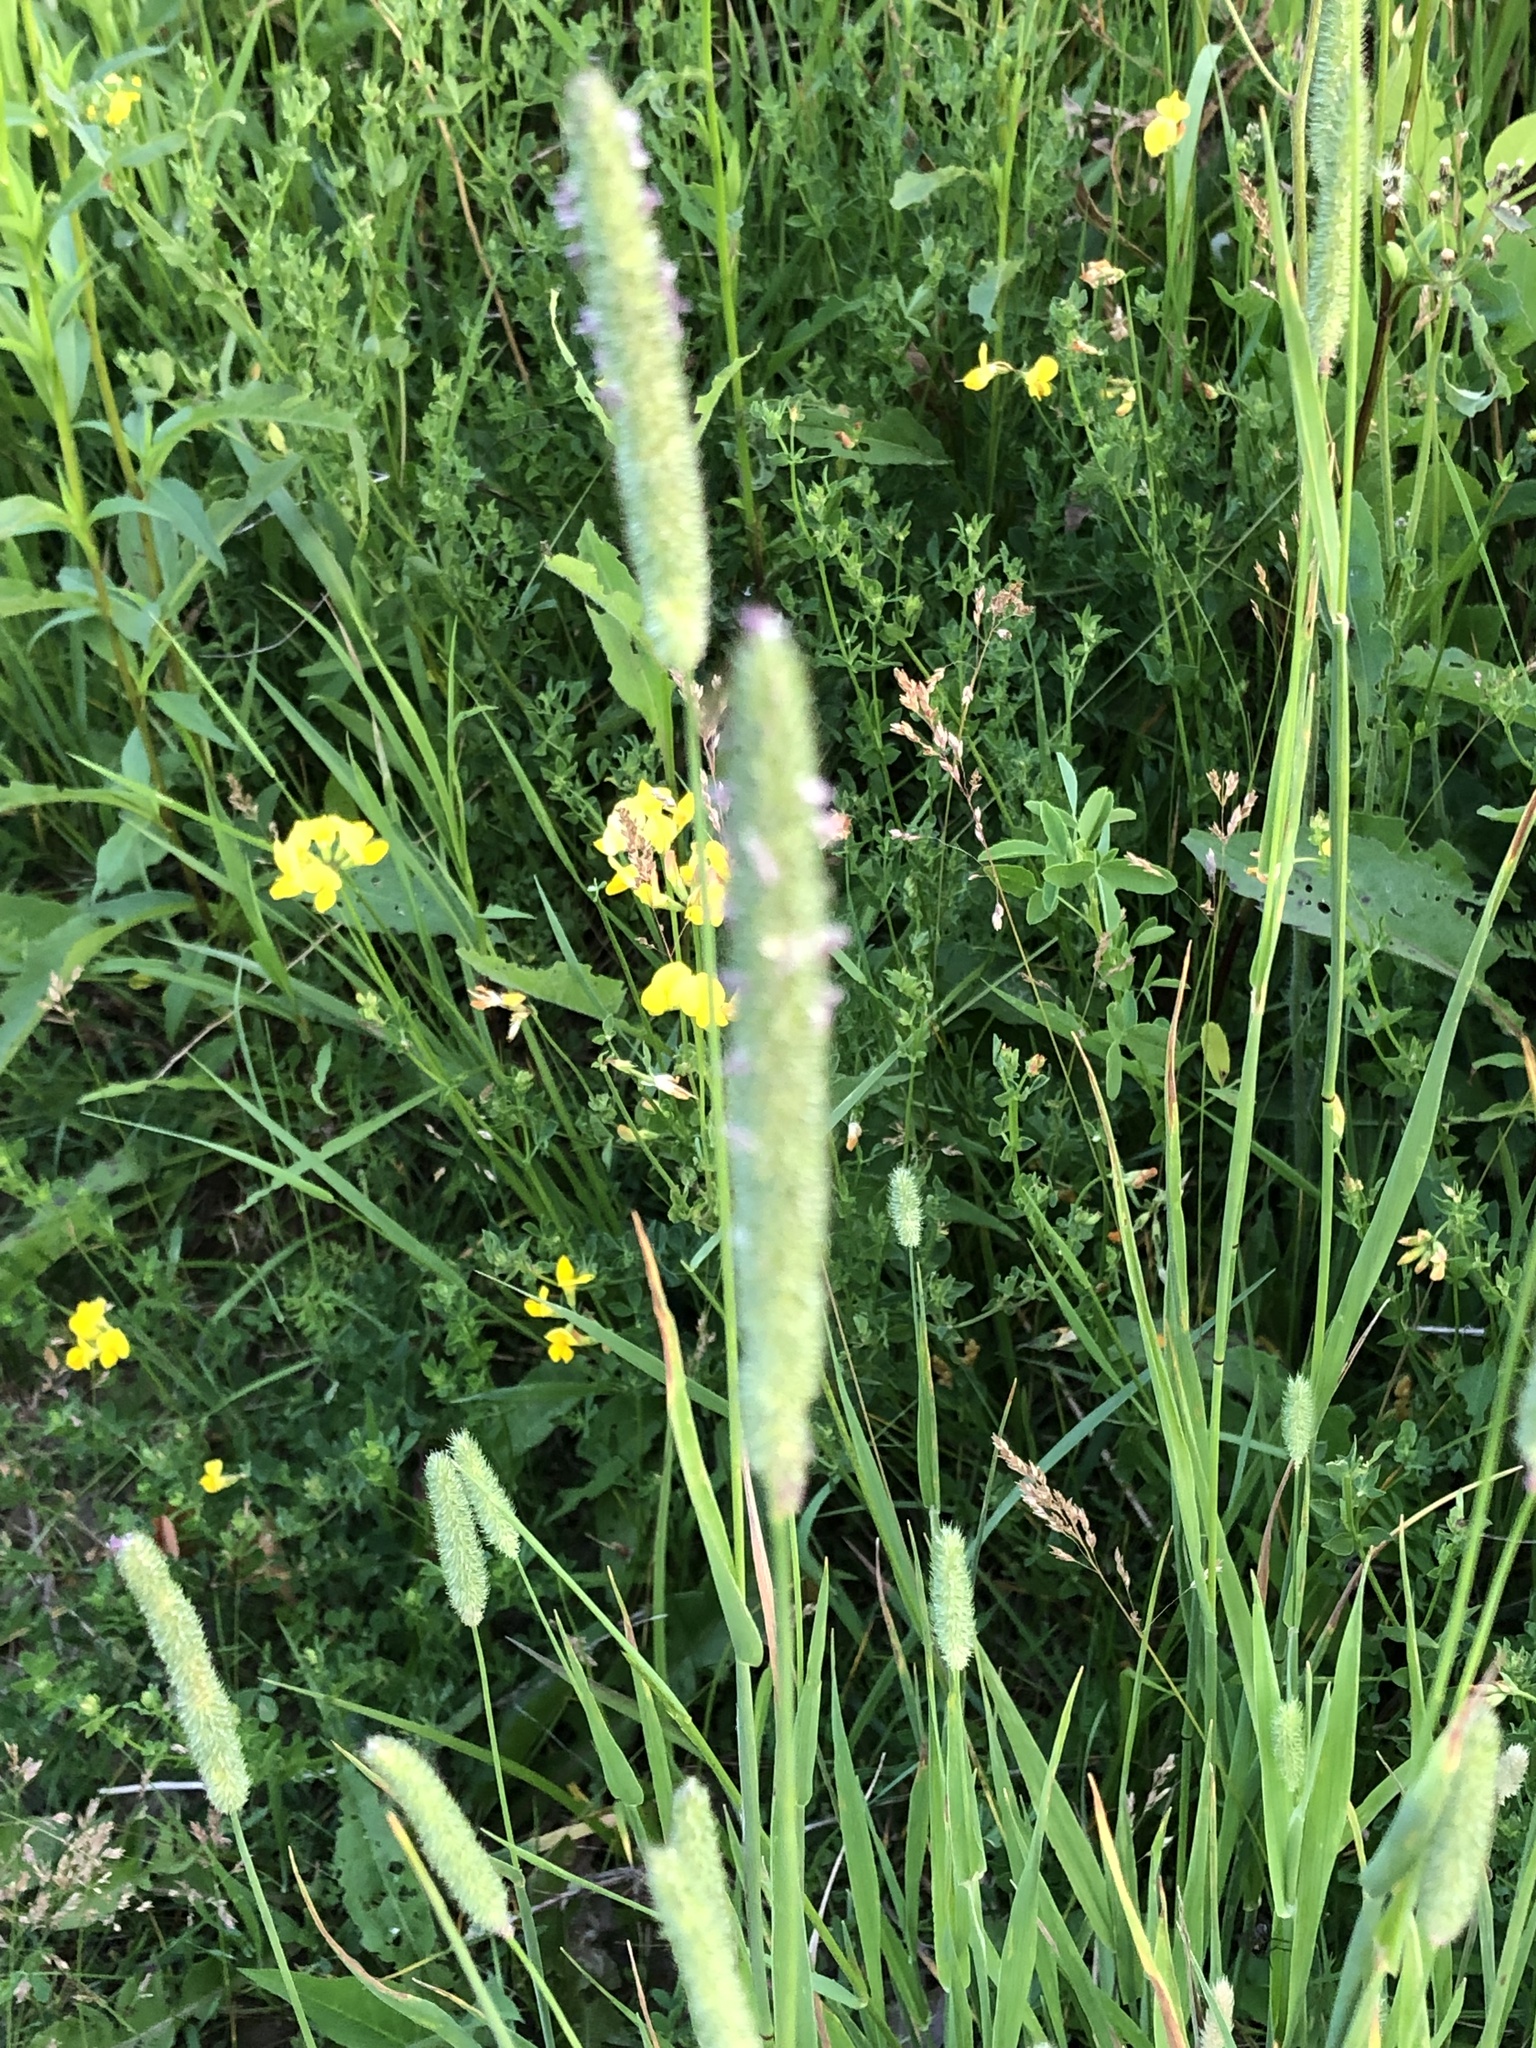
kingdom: Plantae
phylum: Tracheophyta
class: Liliopsida
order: Poales
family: Poaceae
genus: Phleum
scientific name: Phleum pratense
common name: Timothy grass
